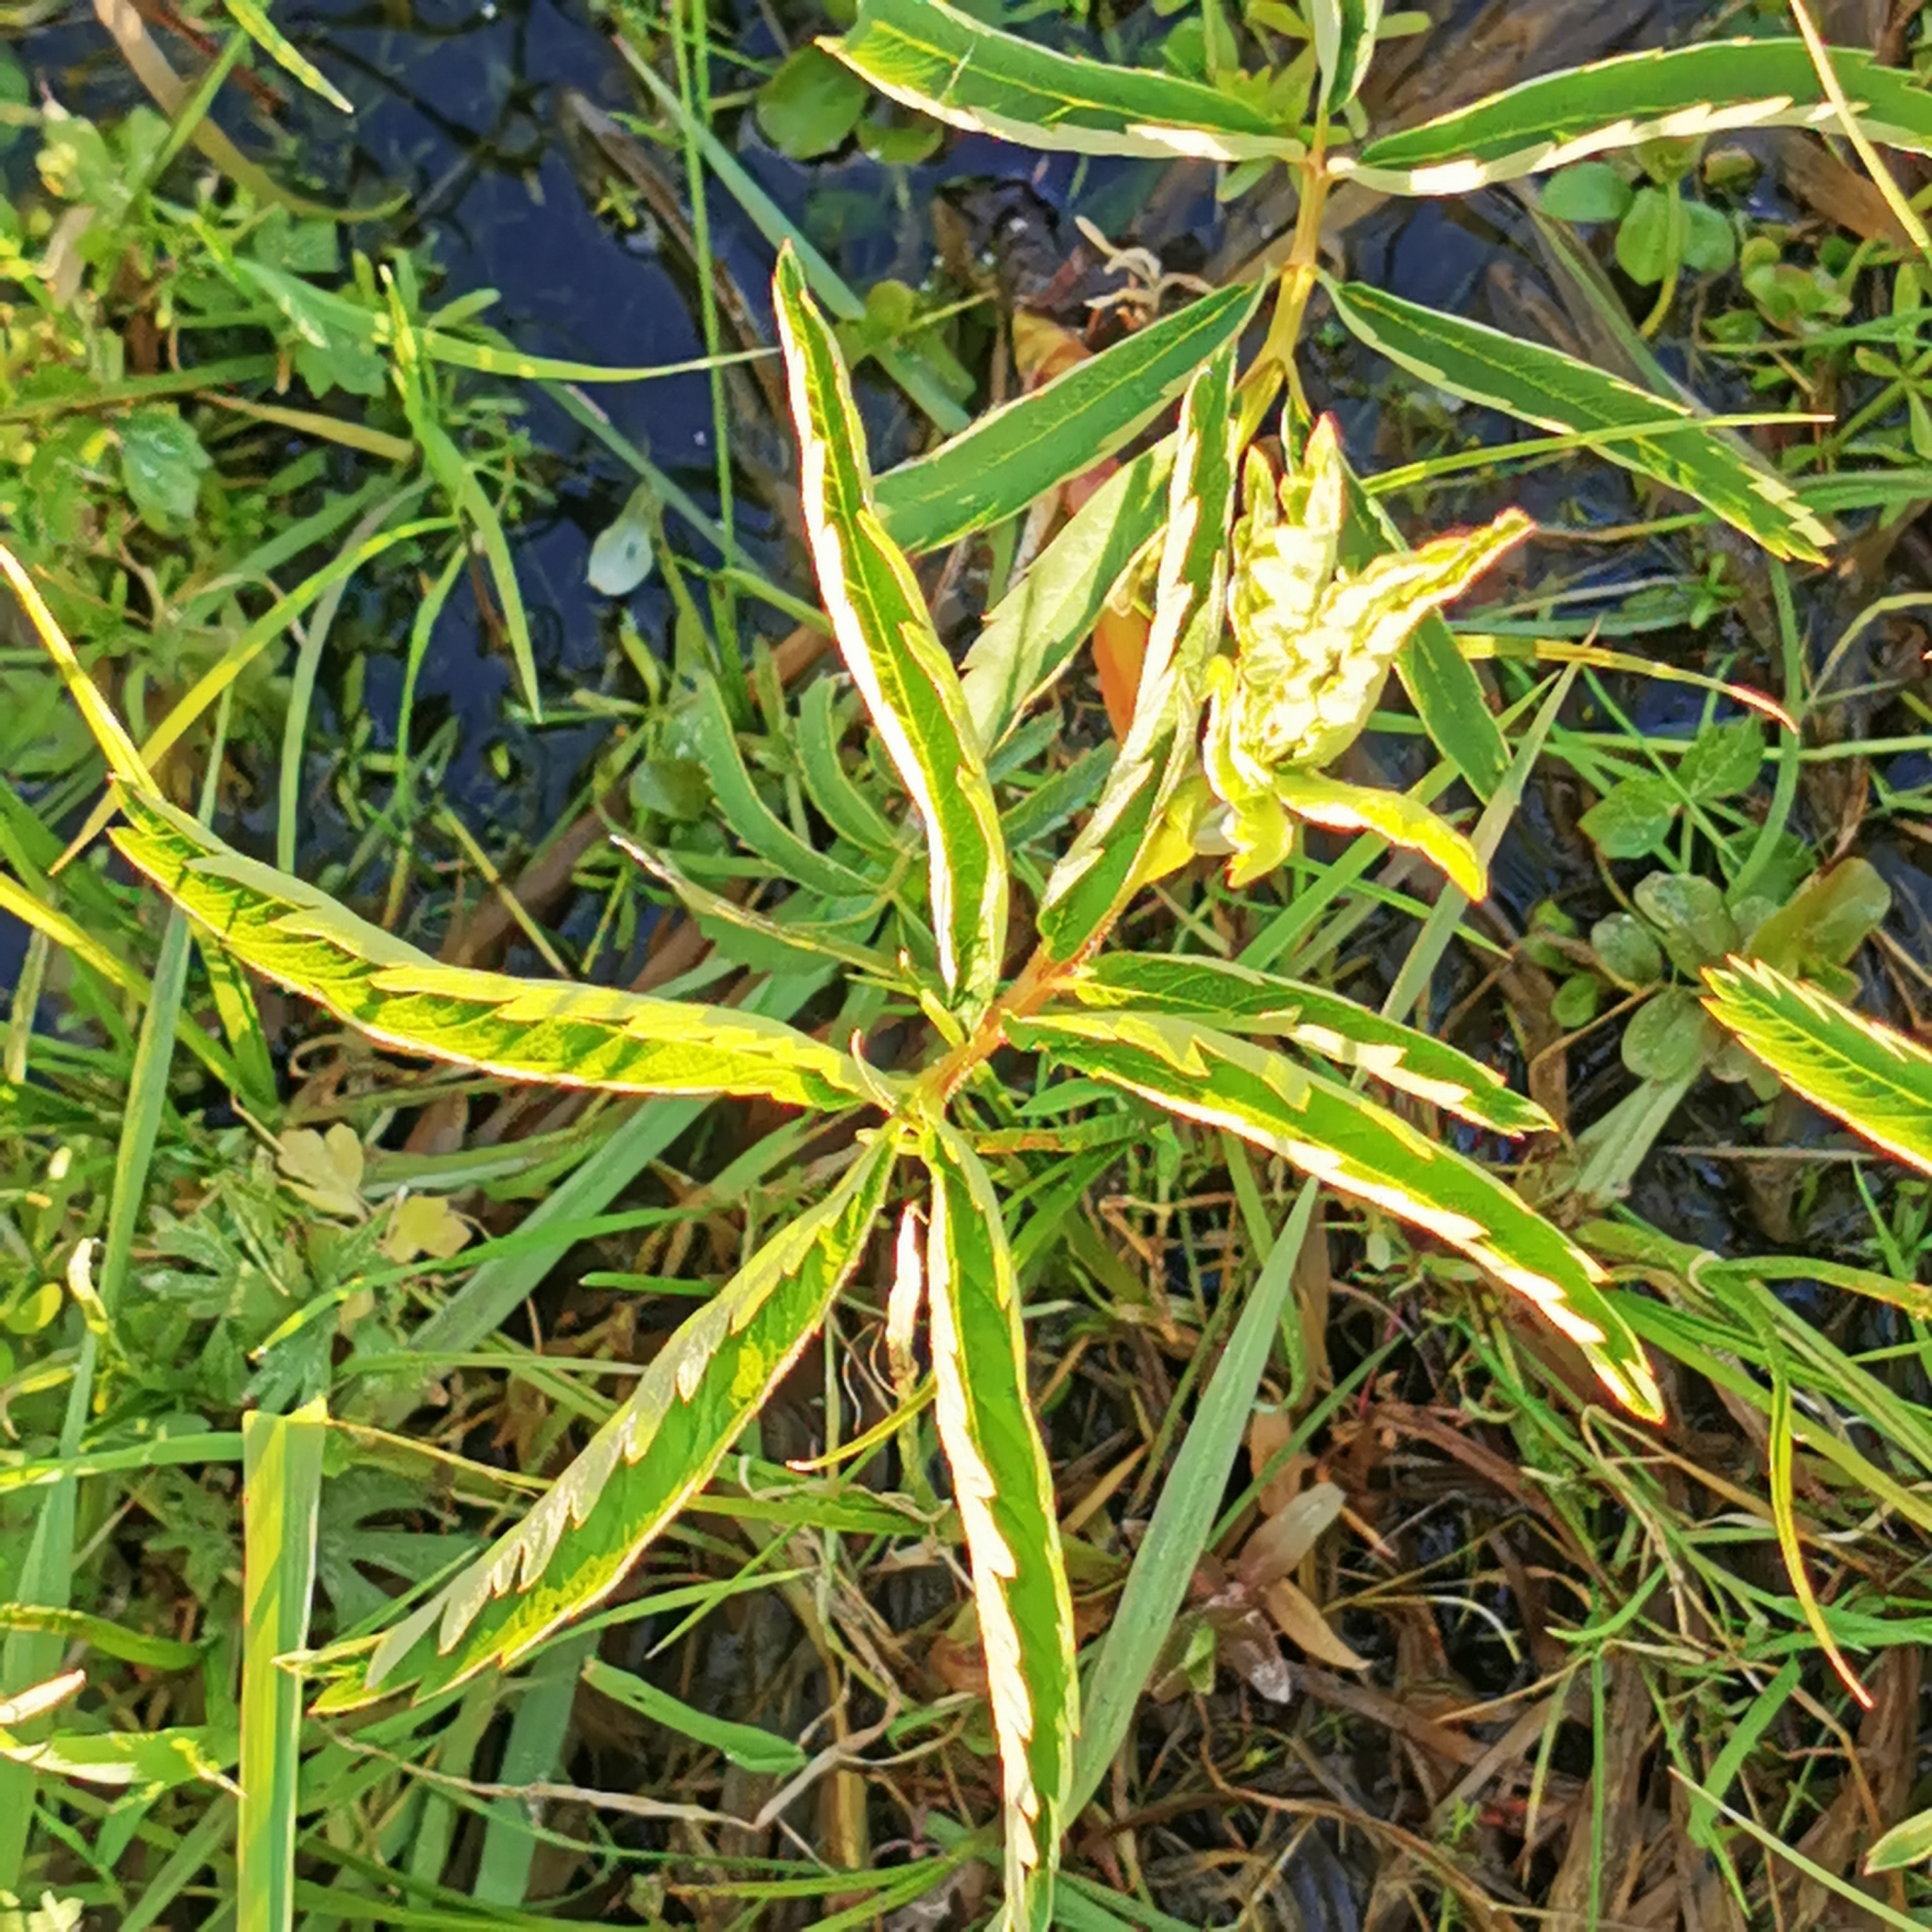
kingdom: Plantae
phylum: Tracheophyta
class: Magnoliopsida
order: Rosales
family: Rosaceae
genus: Comarum
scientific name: Comarum palustre
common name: Marsh cinquefoil
